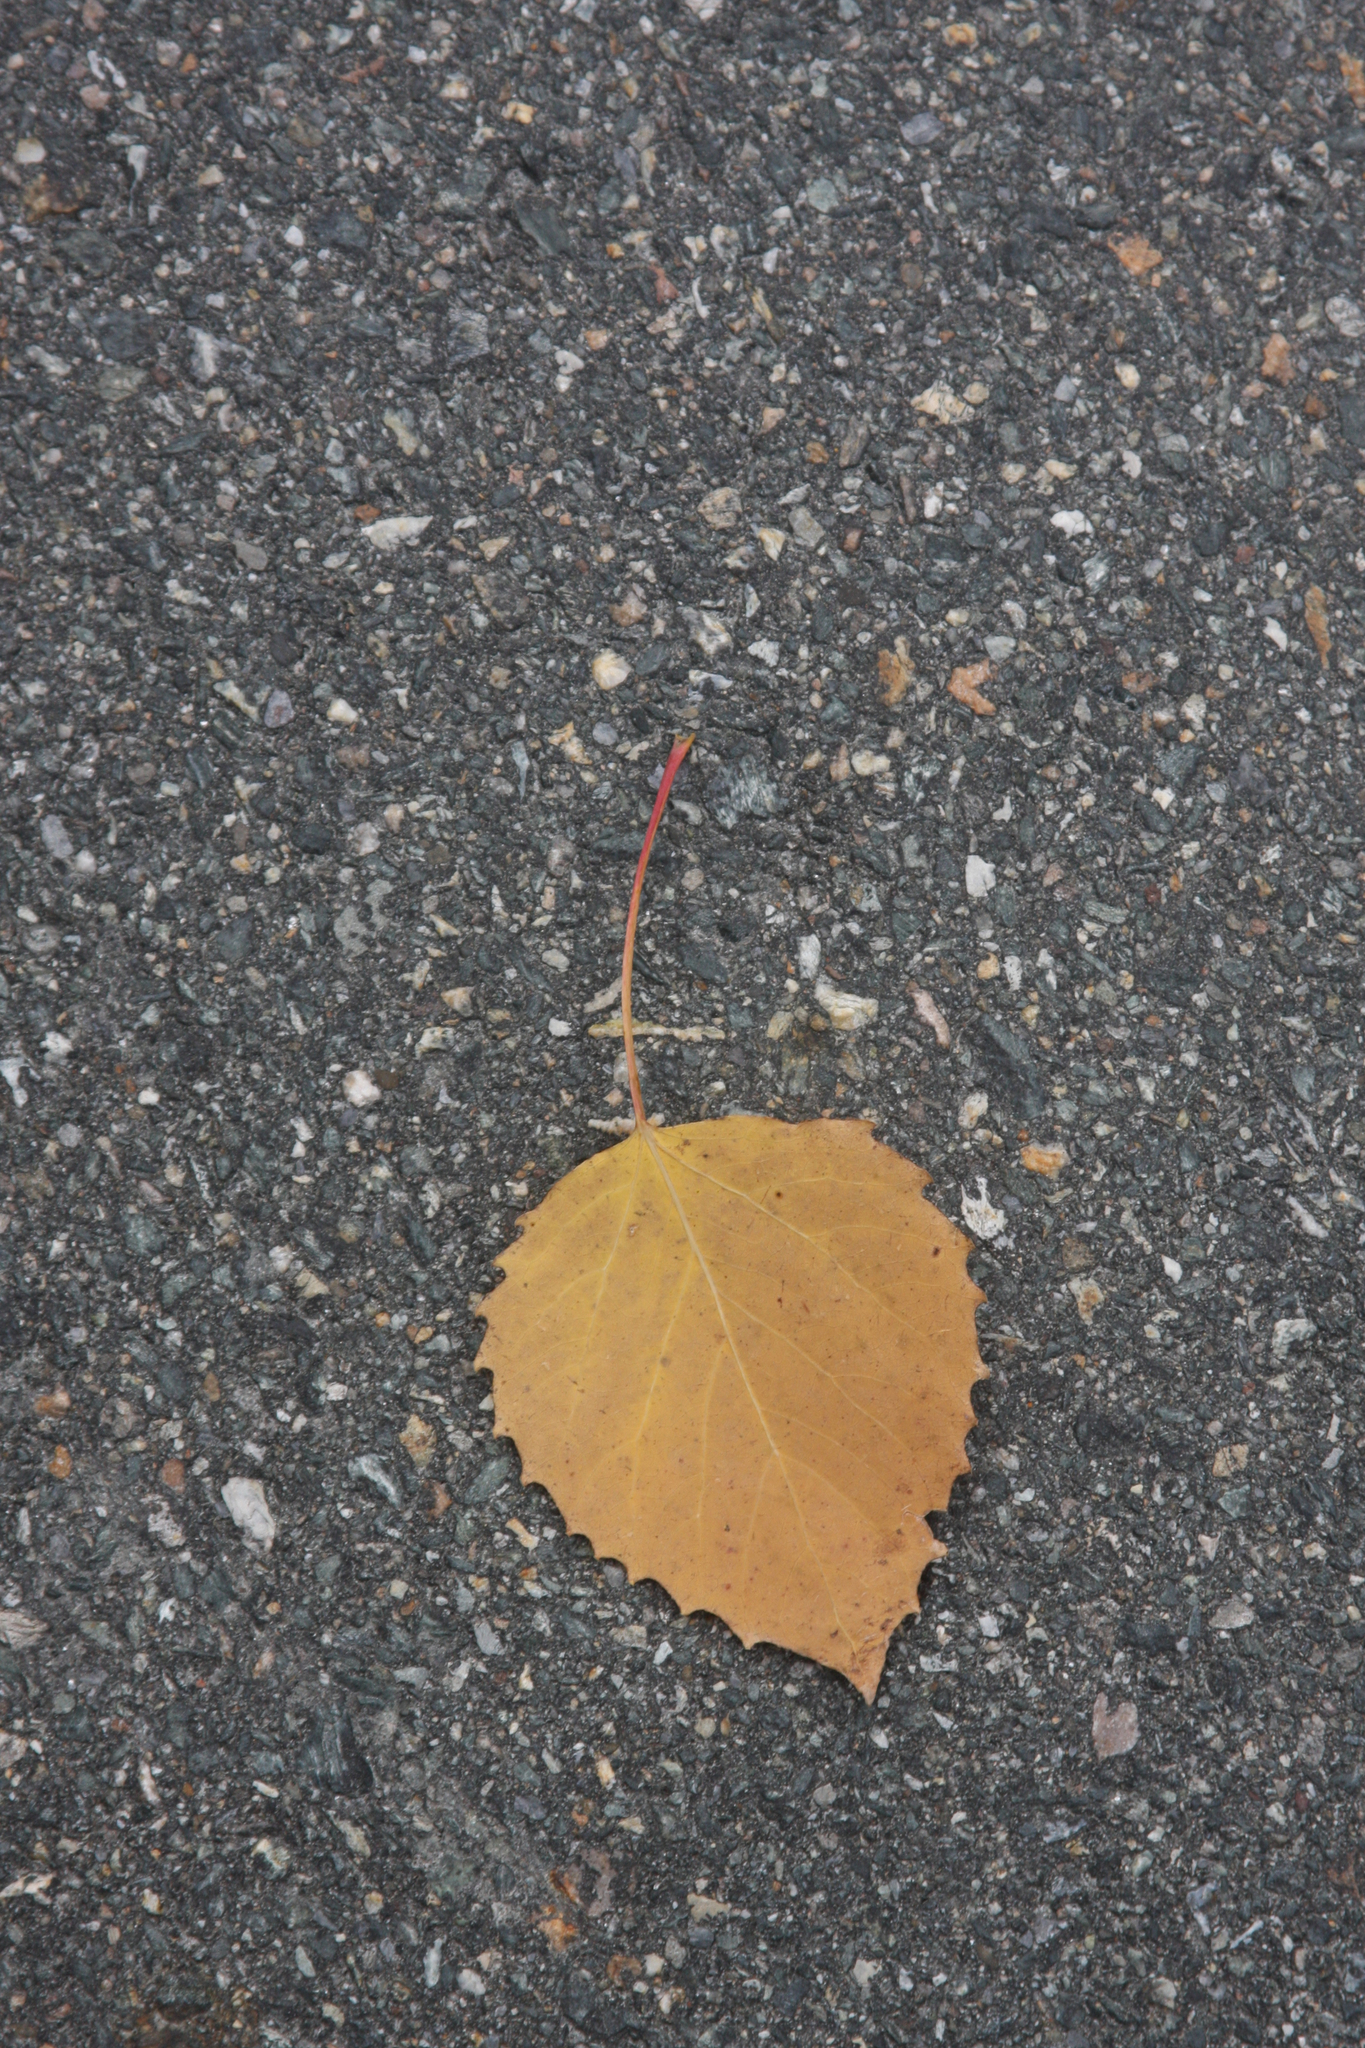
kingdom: Plantae
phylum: Tracheophyta
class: Magnoliopsida
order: Malpighiales
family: Salicaceae
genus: Populus
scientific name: Populus grandidentata
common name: Bigtooth aspen
